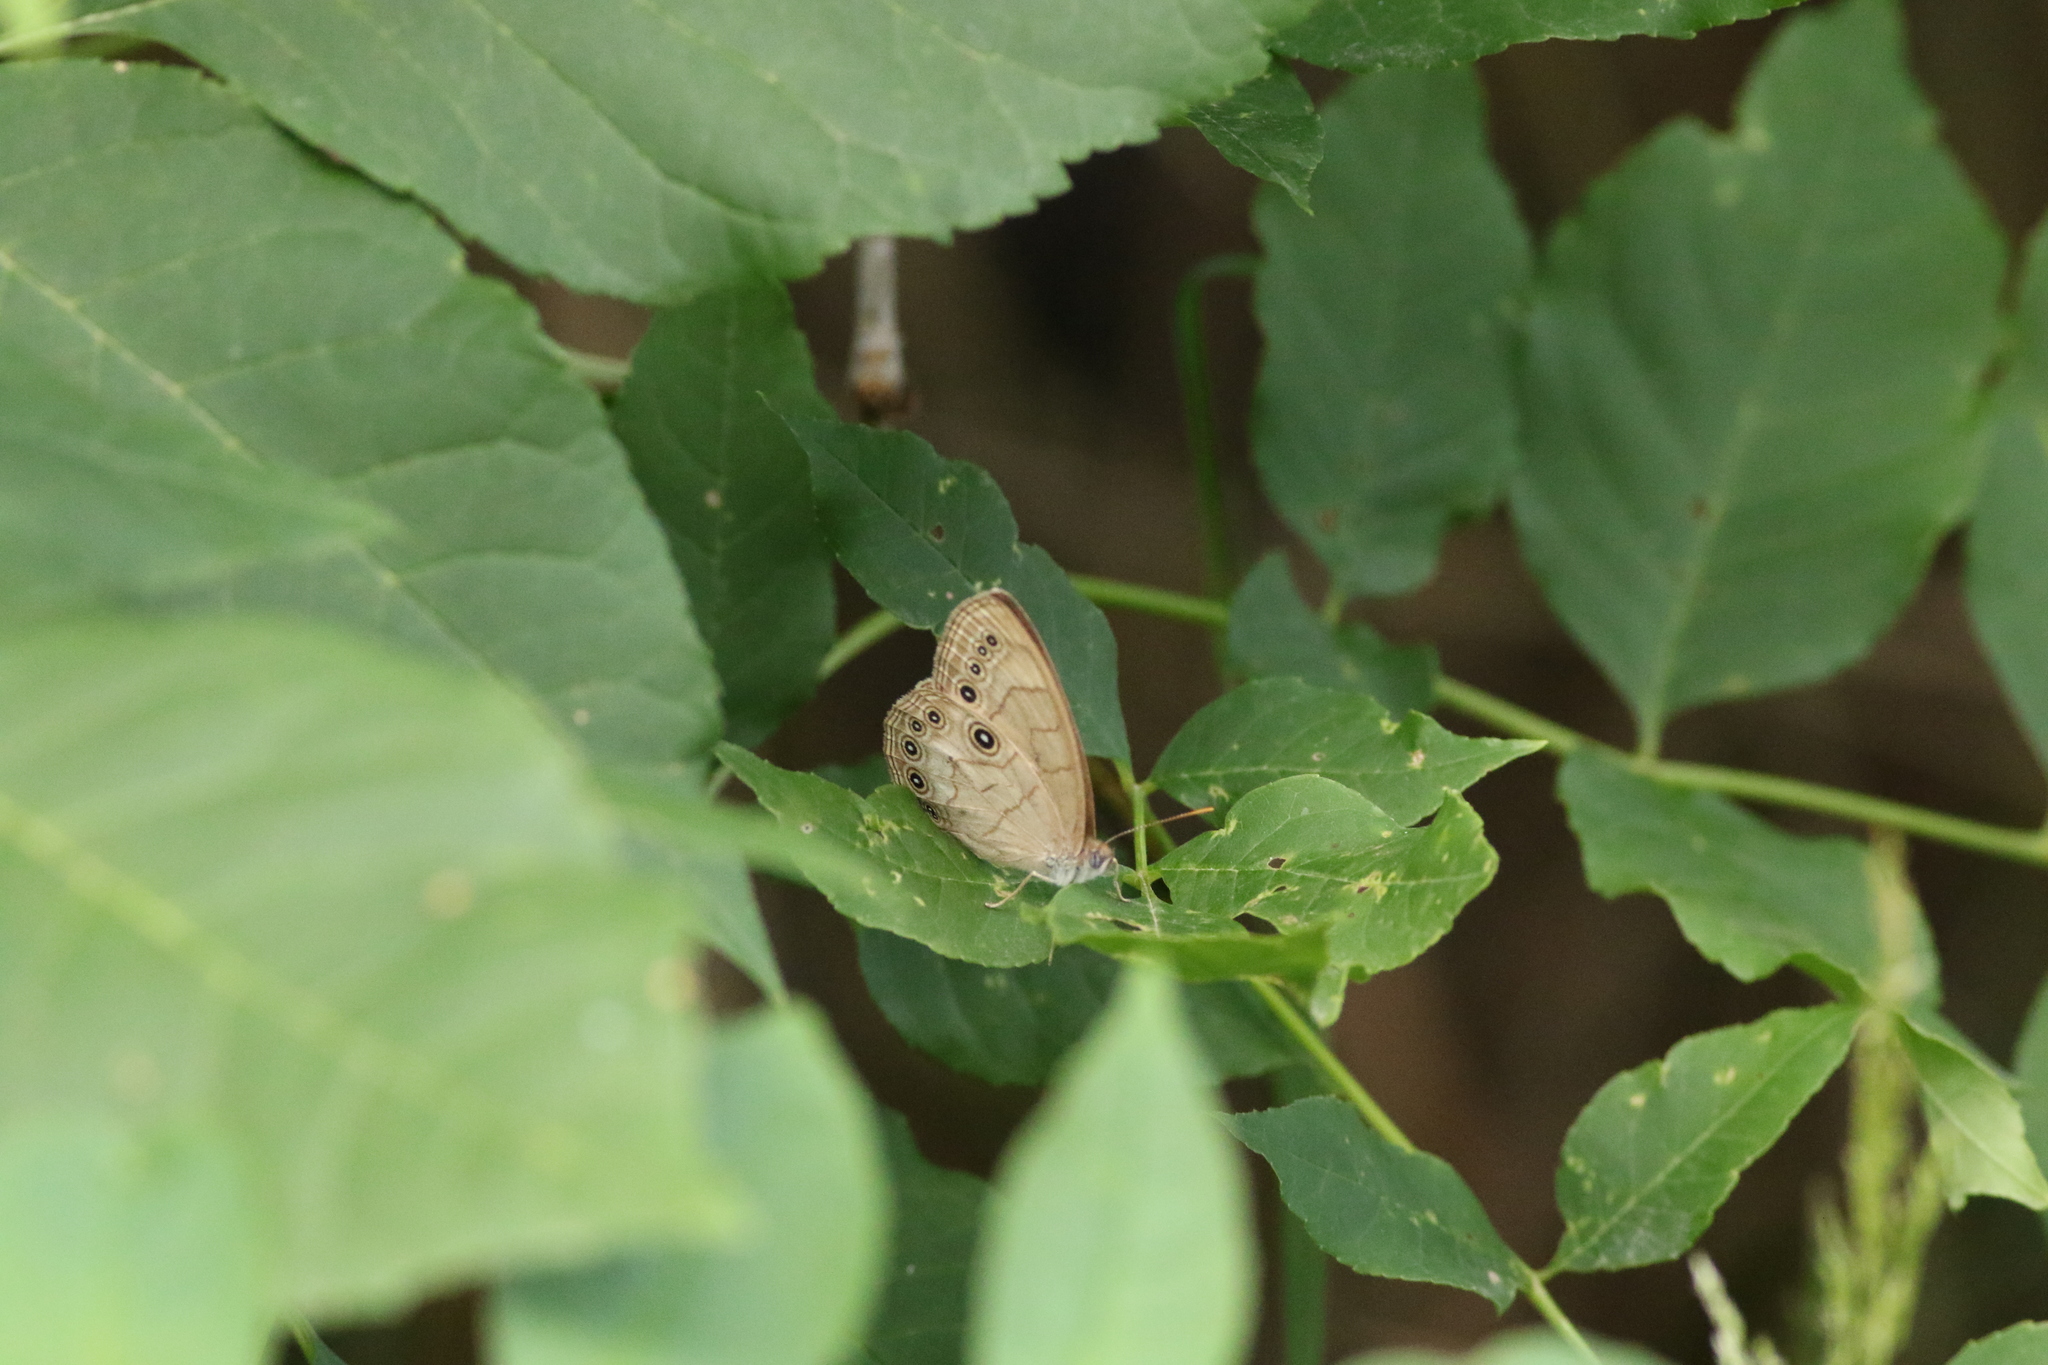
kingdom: Animalia
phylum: Arthropoda
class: Insecta
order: Lepidoptera
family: Nymphalidae
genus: Lethe
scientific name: Lethe eurydice
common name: Eyed brown
